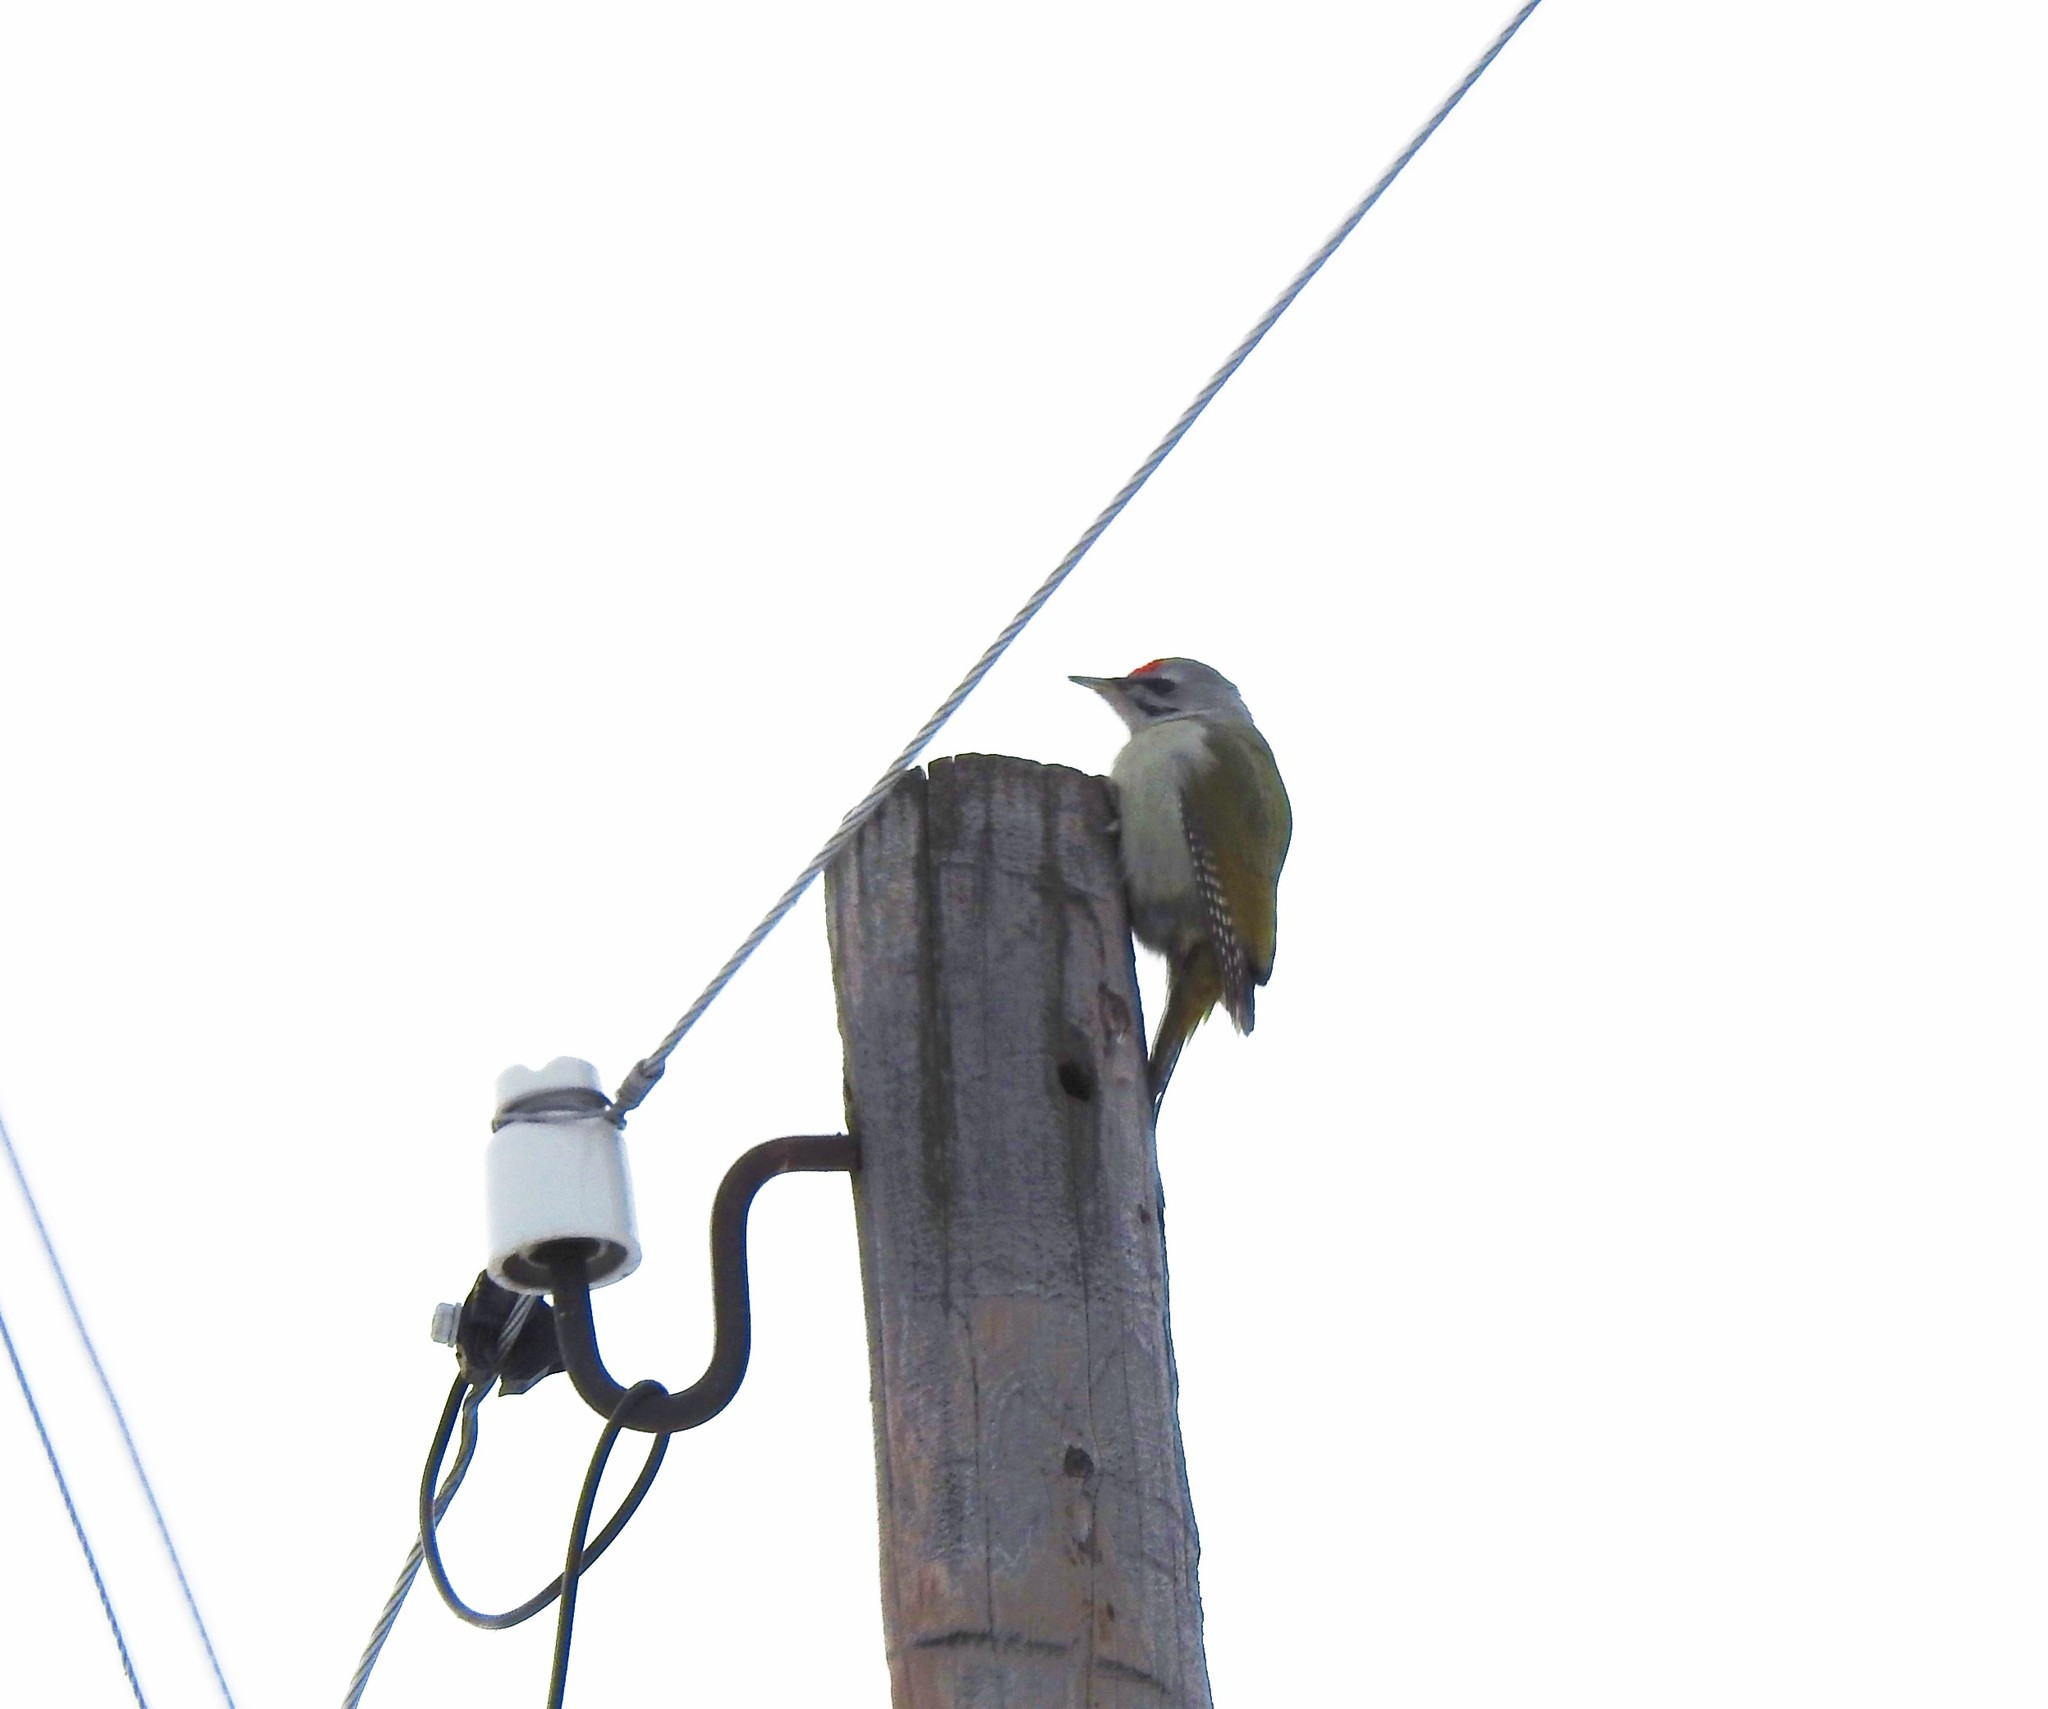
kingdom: Animalia
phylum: Chordata
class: Aves
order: Piciformes
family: Picidae
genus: Picus
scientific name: Picus canus
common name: Grey-headed woodpecker
